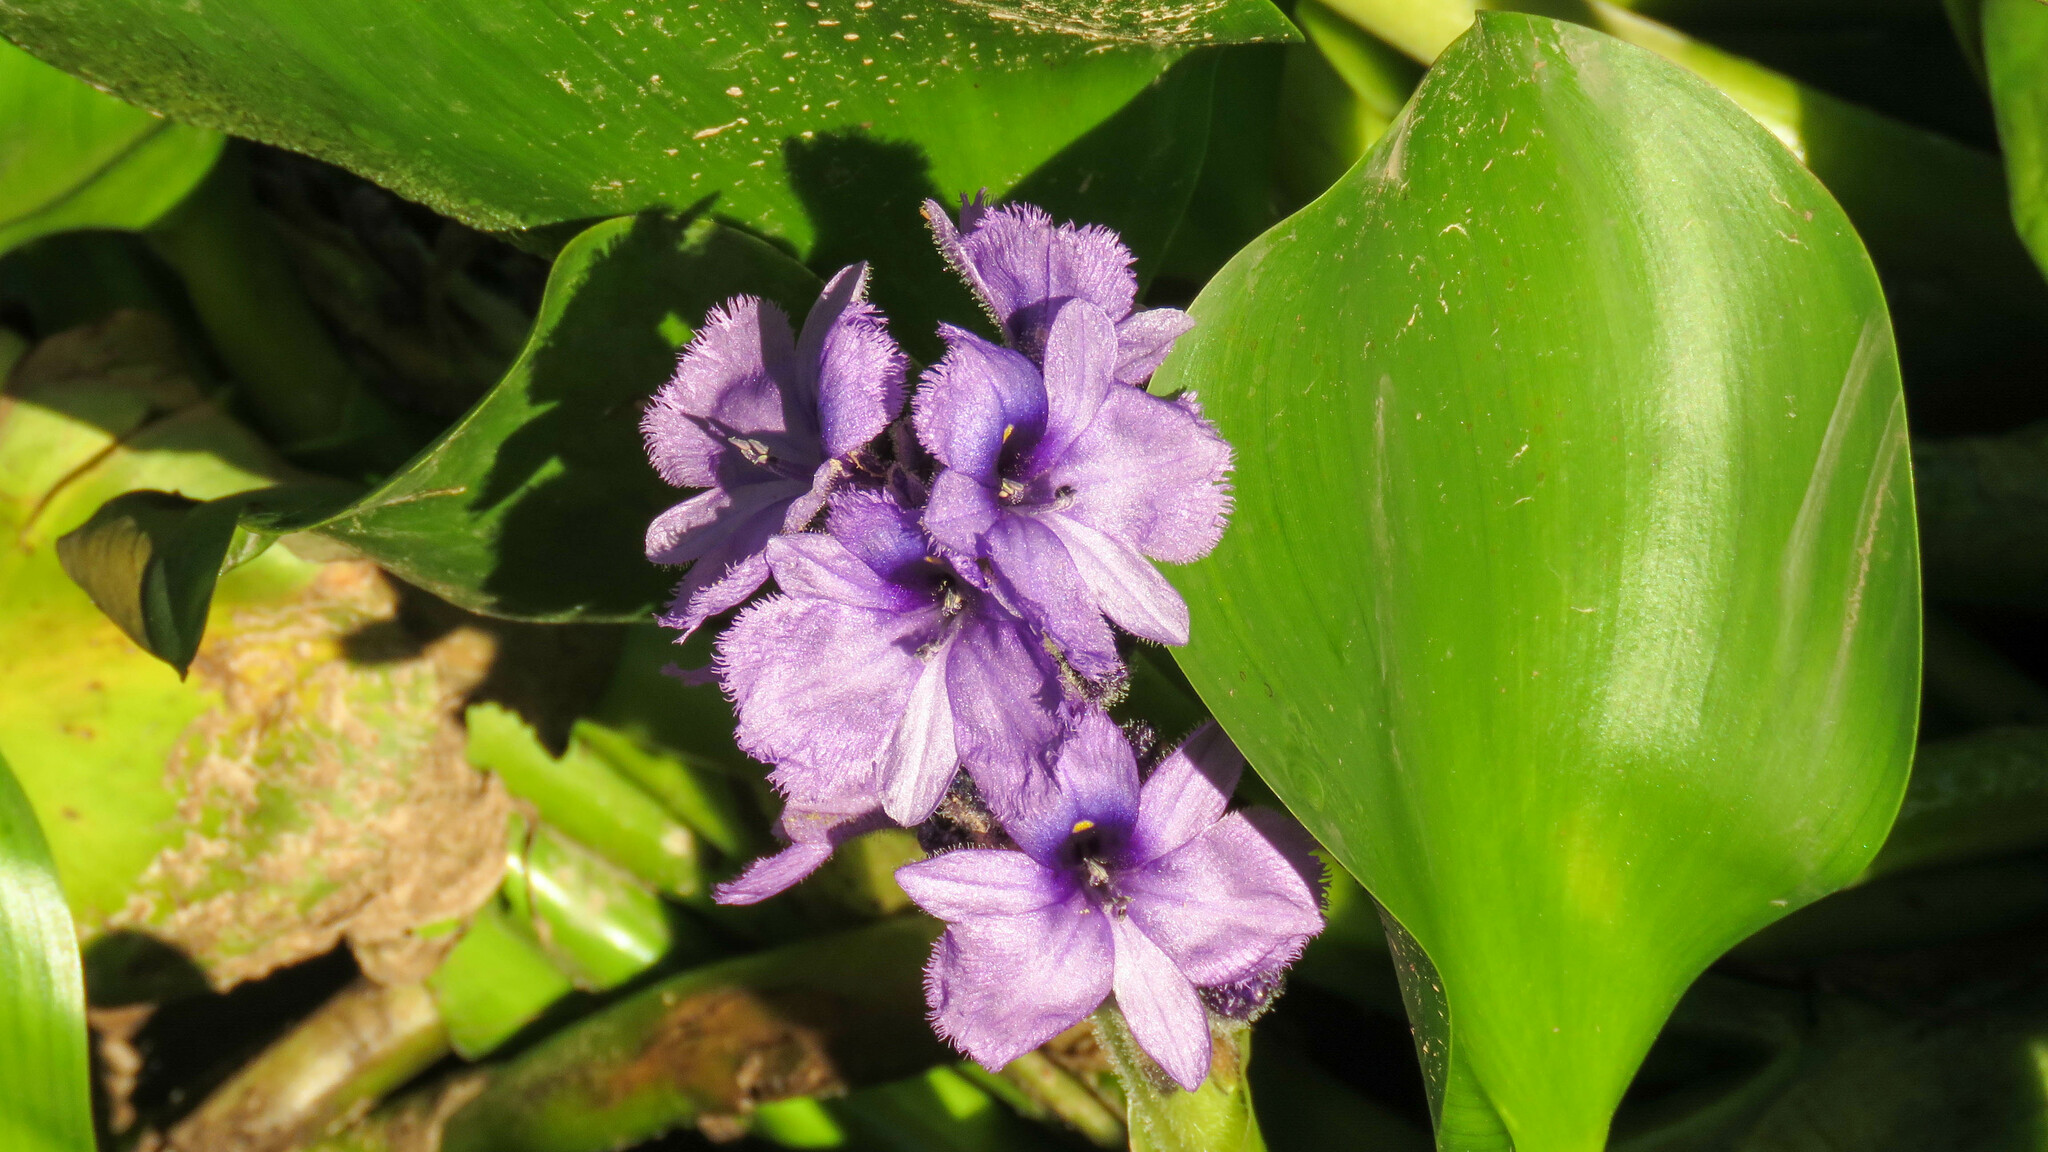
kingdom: Plantae
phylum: Tracheophyta
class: Liliopsida
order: Commelinales
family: Pontederiaceae
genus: Pontederia
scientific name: Pontederia azurea
